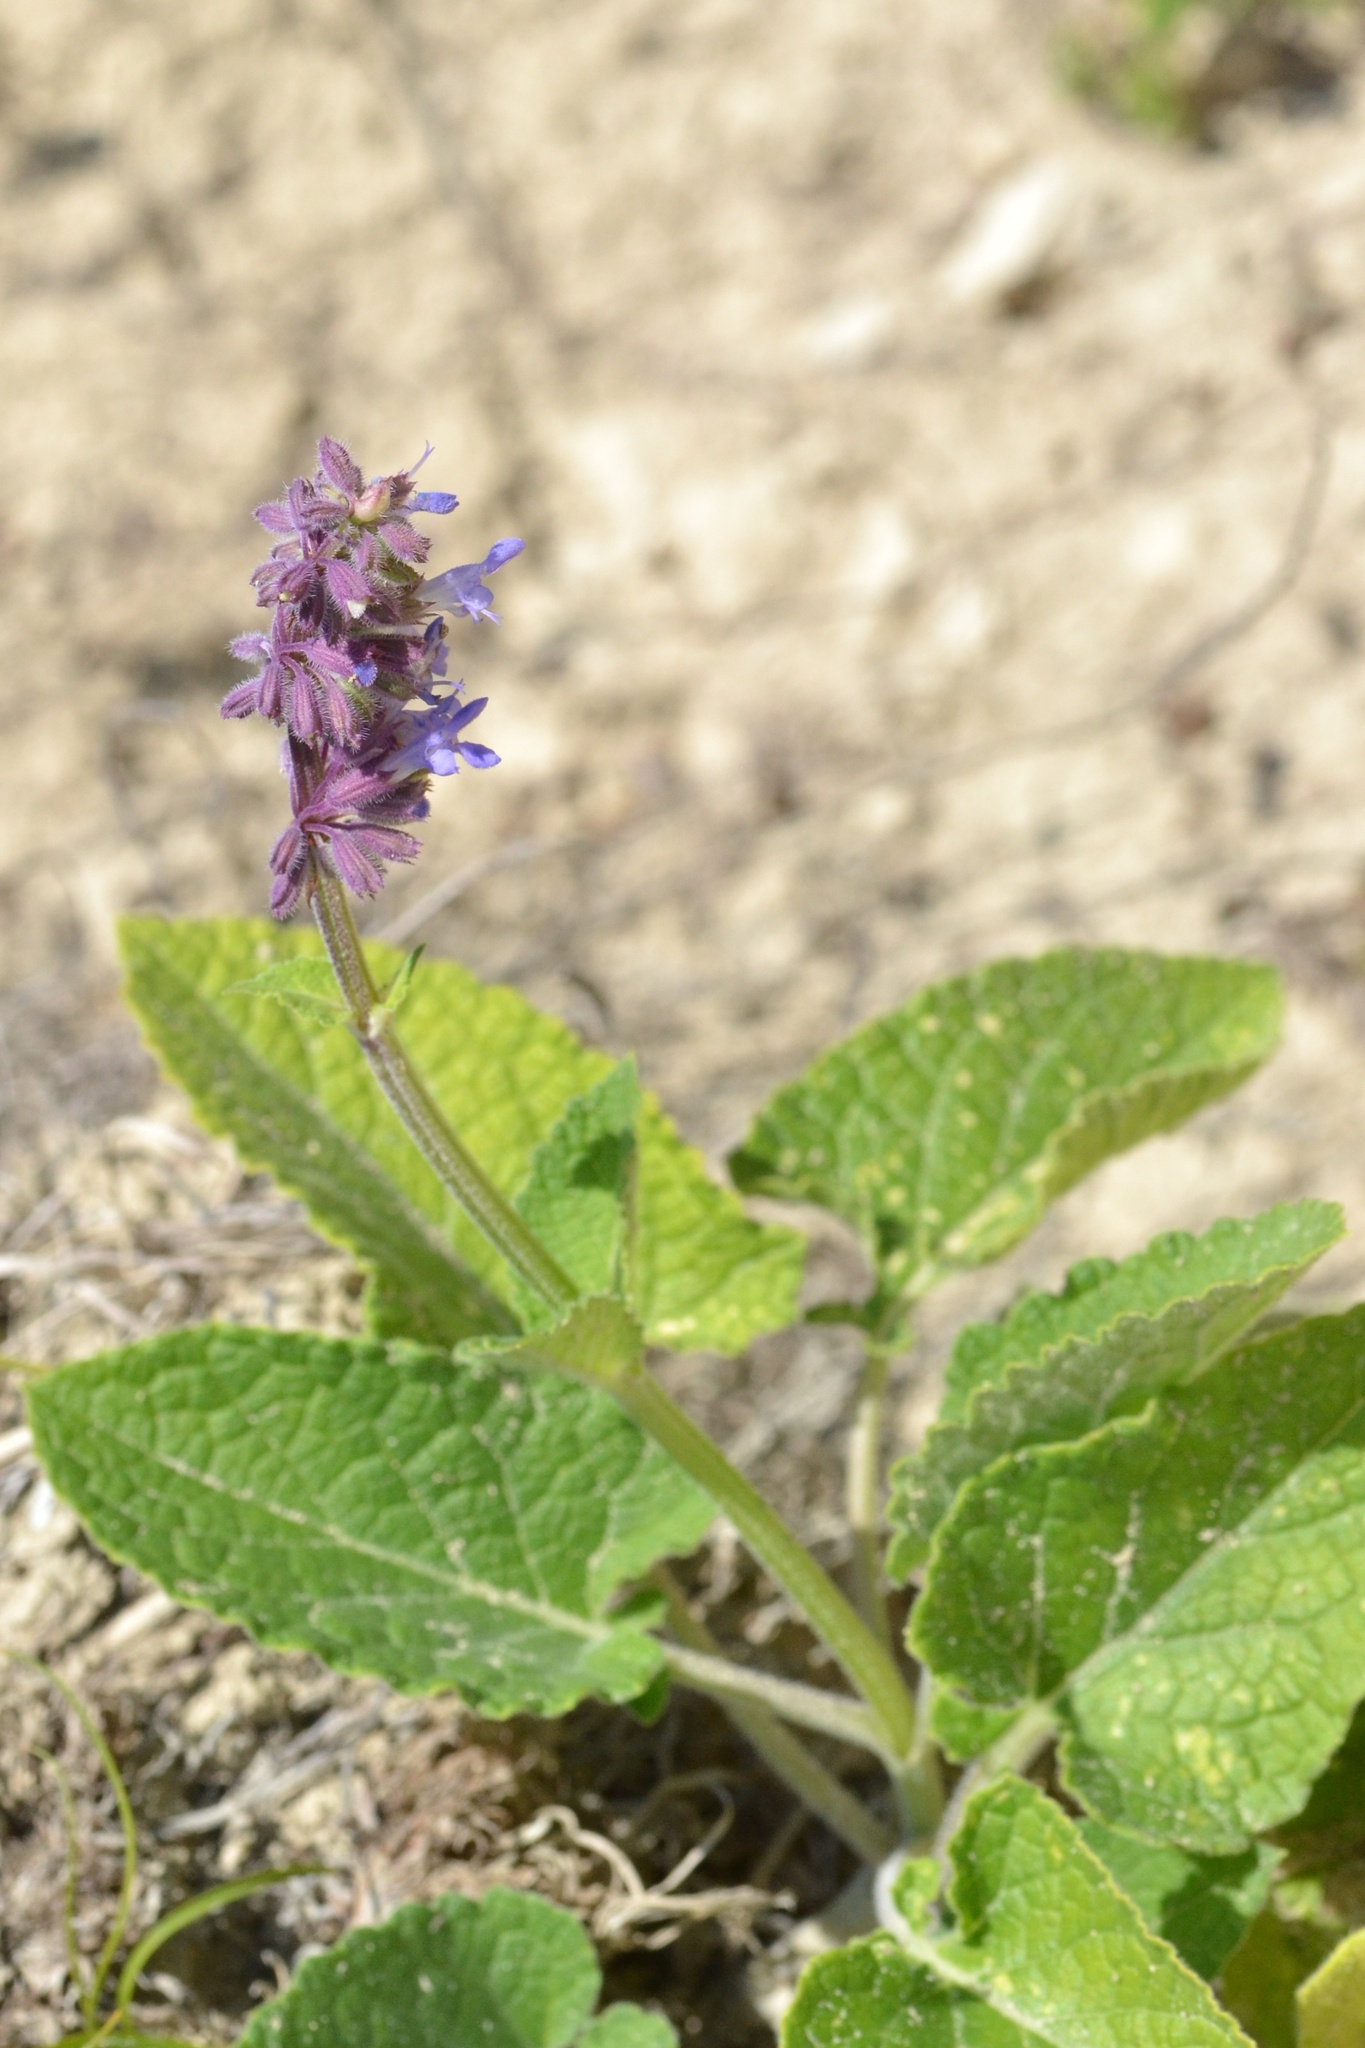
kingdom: Plantae
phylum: Tracheophyta
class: Magnoliopsida
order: Lamiales
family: Lamiaceae
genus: Salvia
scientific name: Salvia verticillata
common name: Whorled clary
